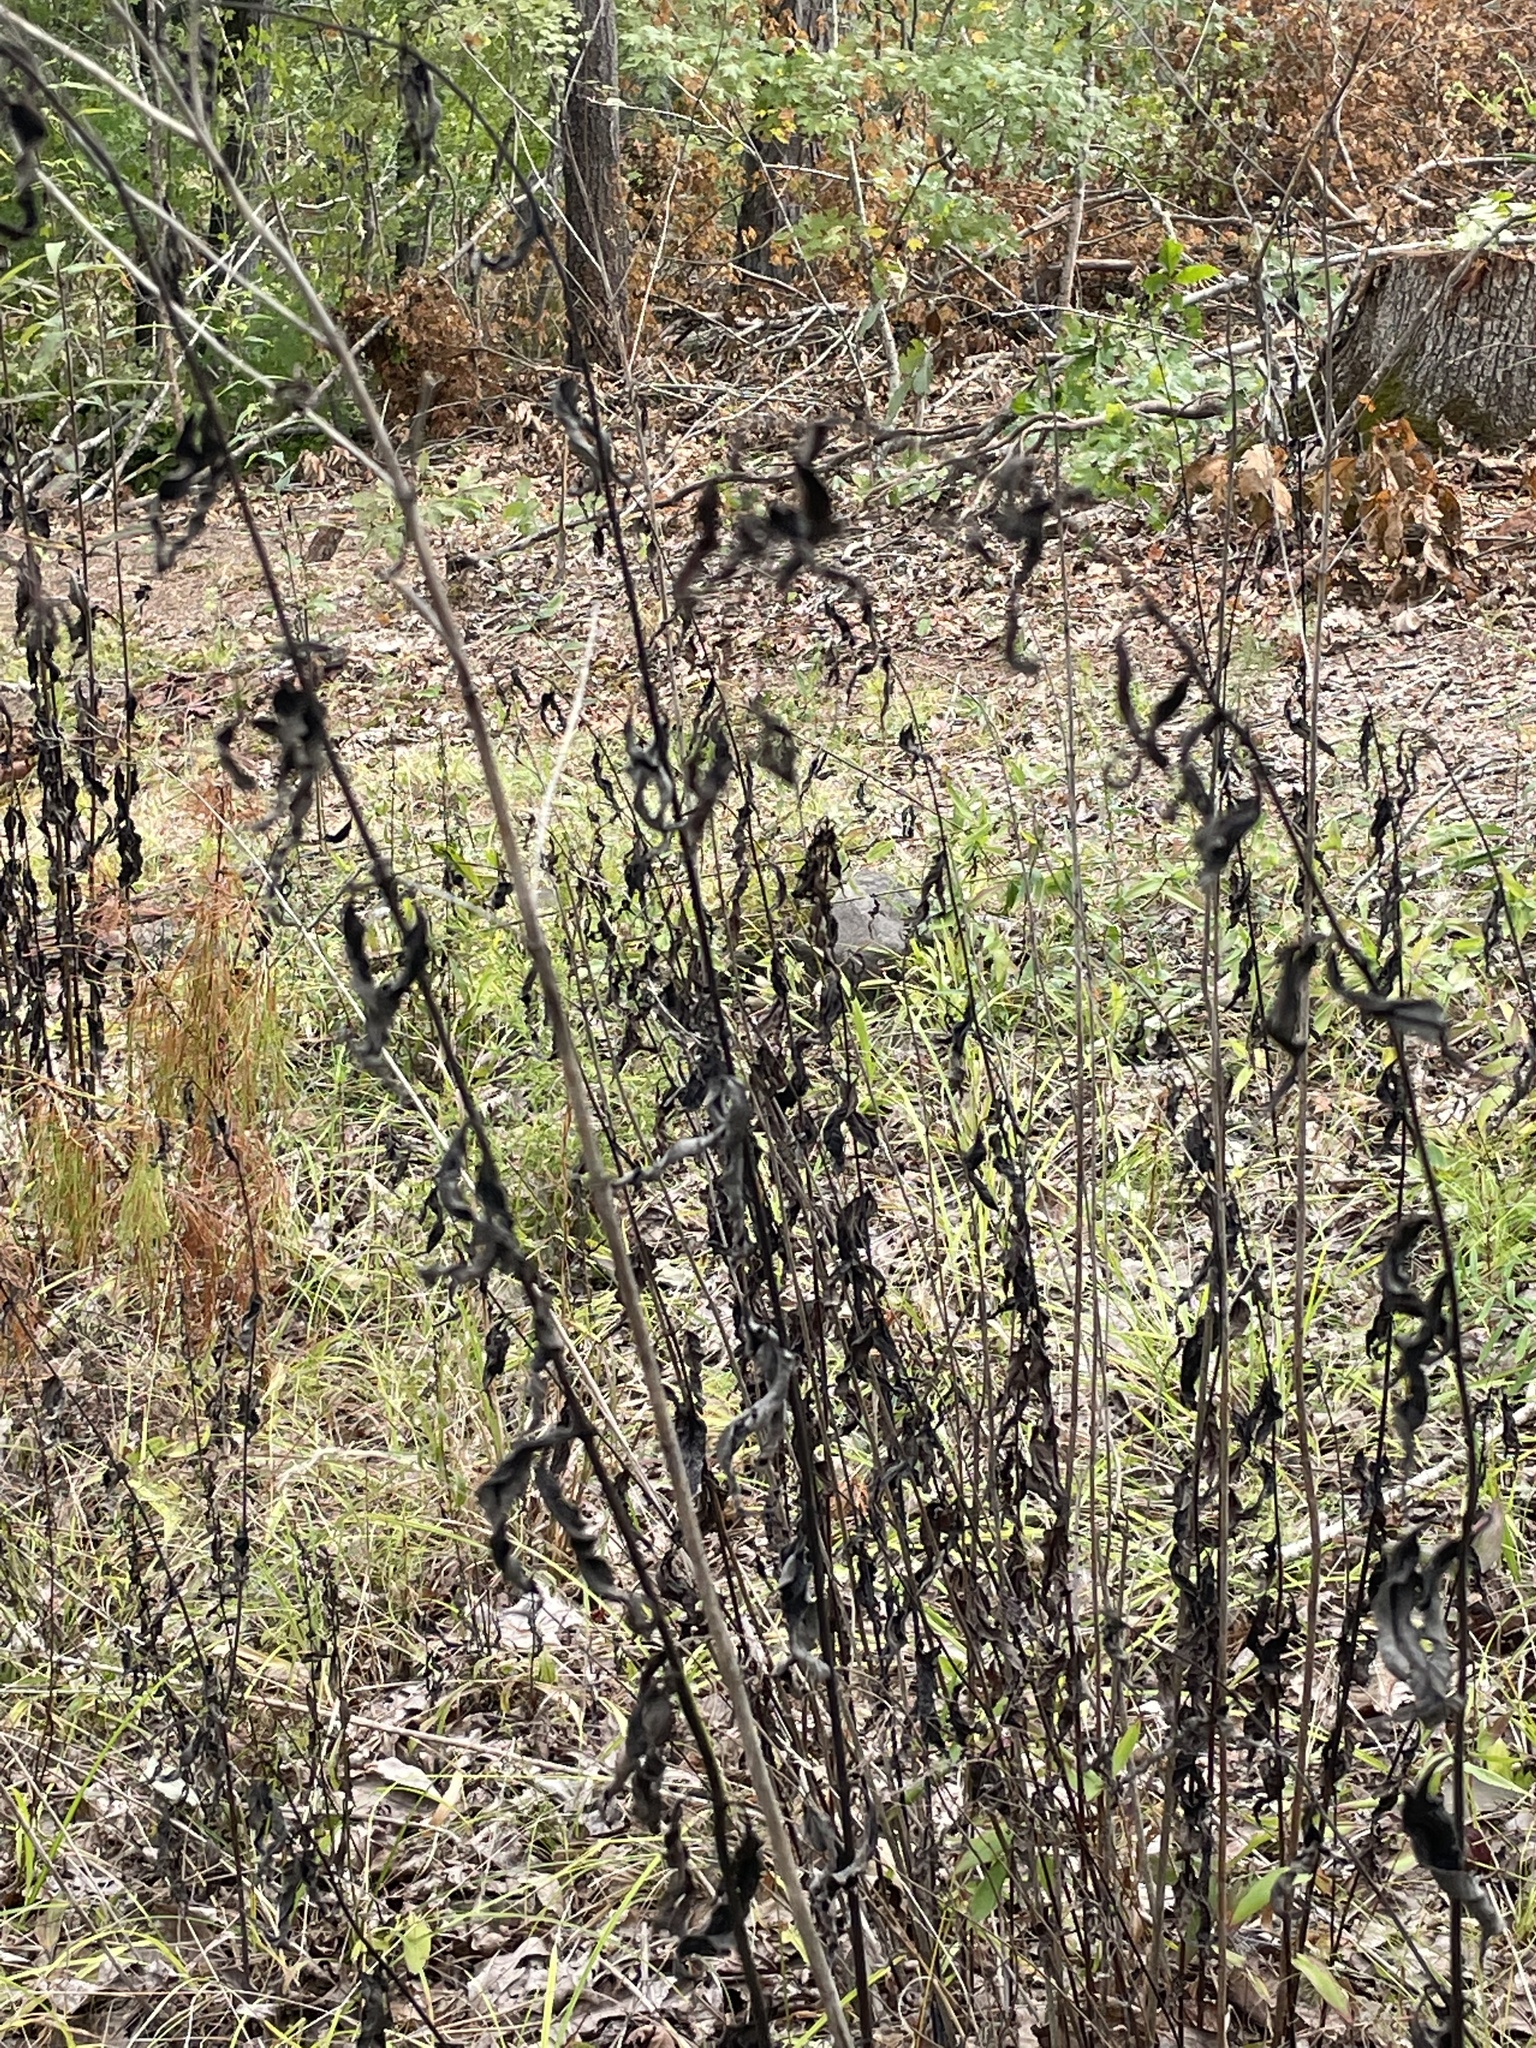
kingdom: Plantae
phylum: Tracheophyta
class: Magnoliopsida
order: Asterales
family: Asteraceae
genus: Helianthus
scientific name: Helianthus microcephalus
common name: Woodland sunflower
